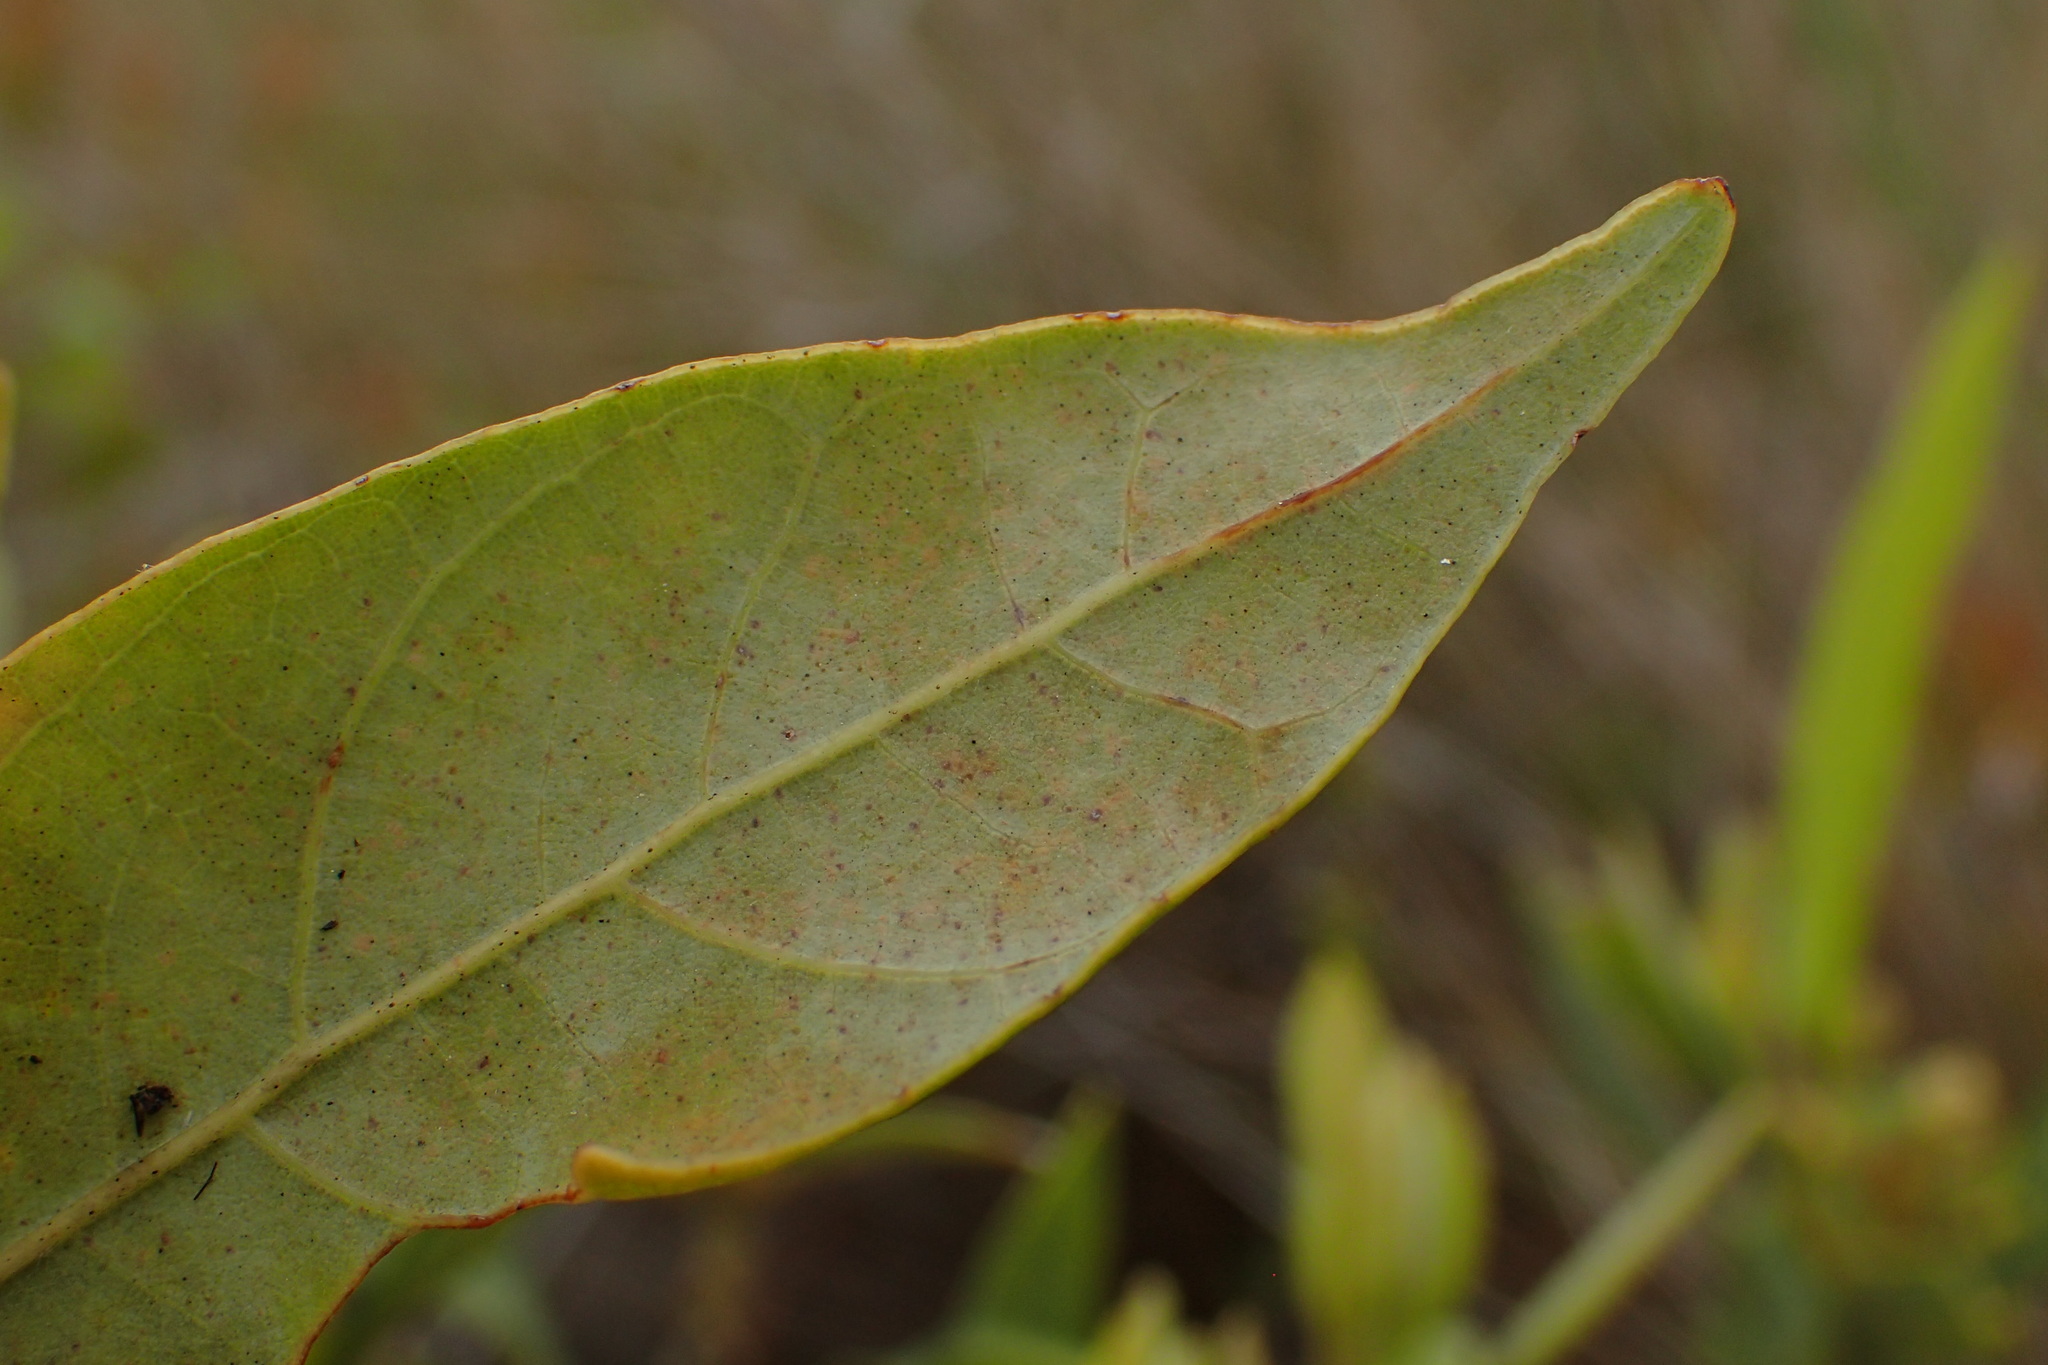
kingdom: Plantae
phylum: Tracheophyta
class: Magnoliopsida
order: Laurales
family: Lauraceae
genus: Persea
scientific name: Persea palustris
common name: Swampbay
